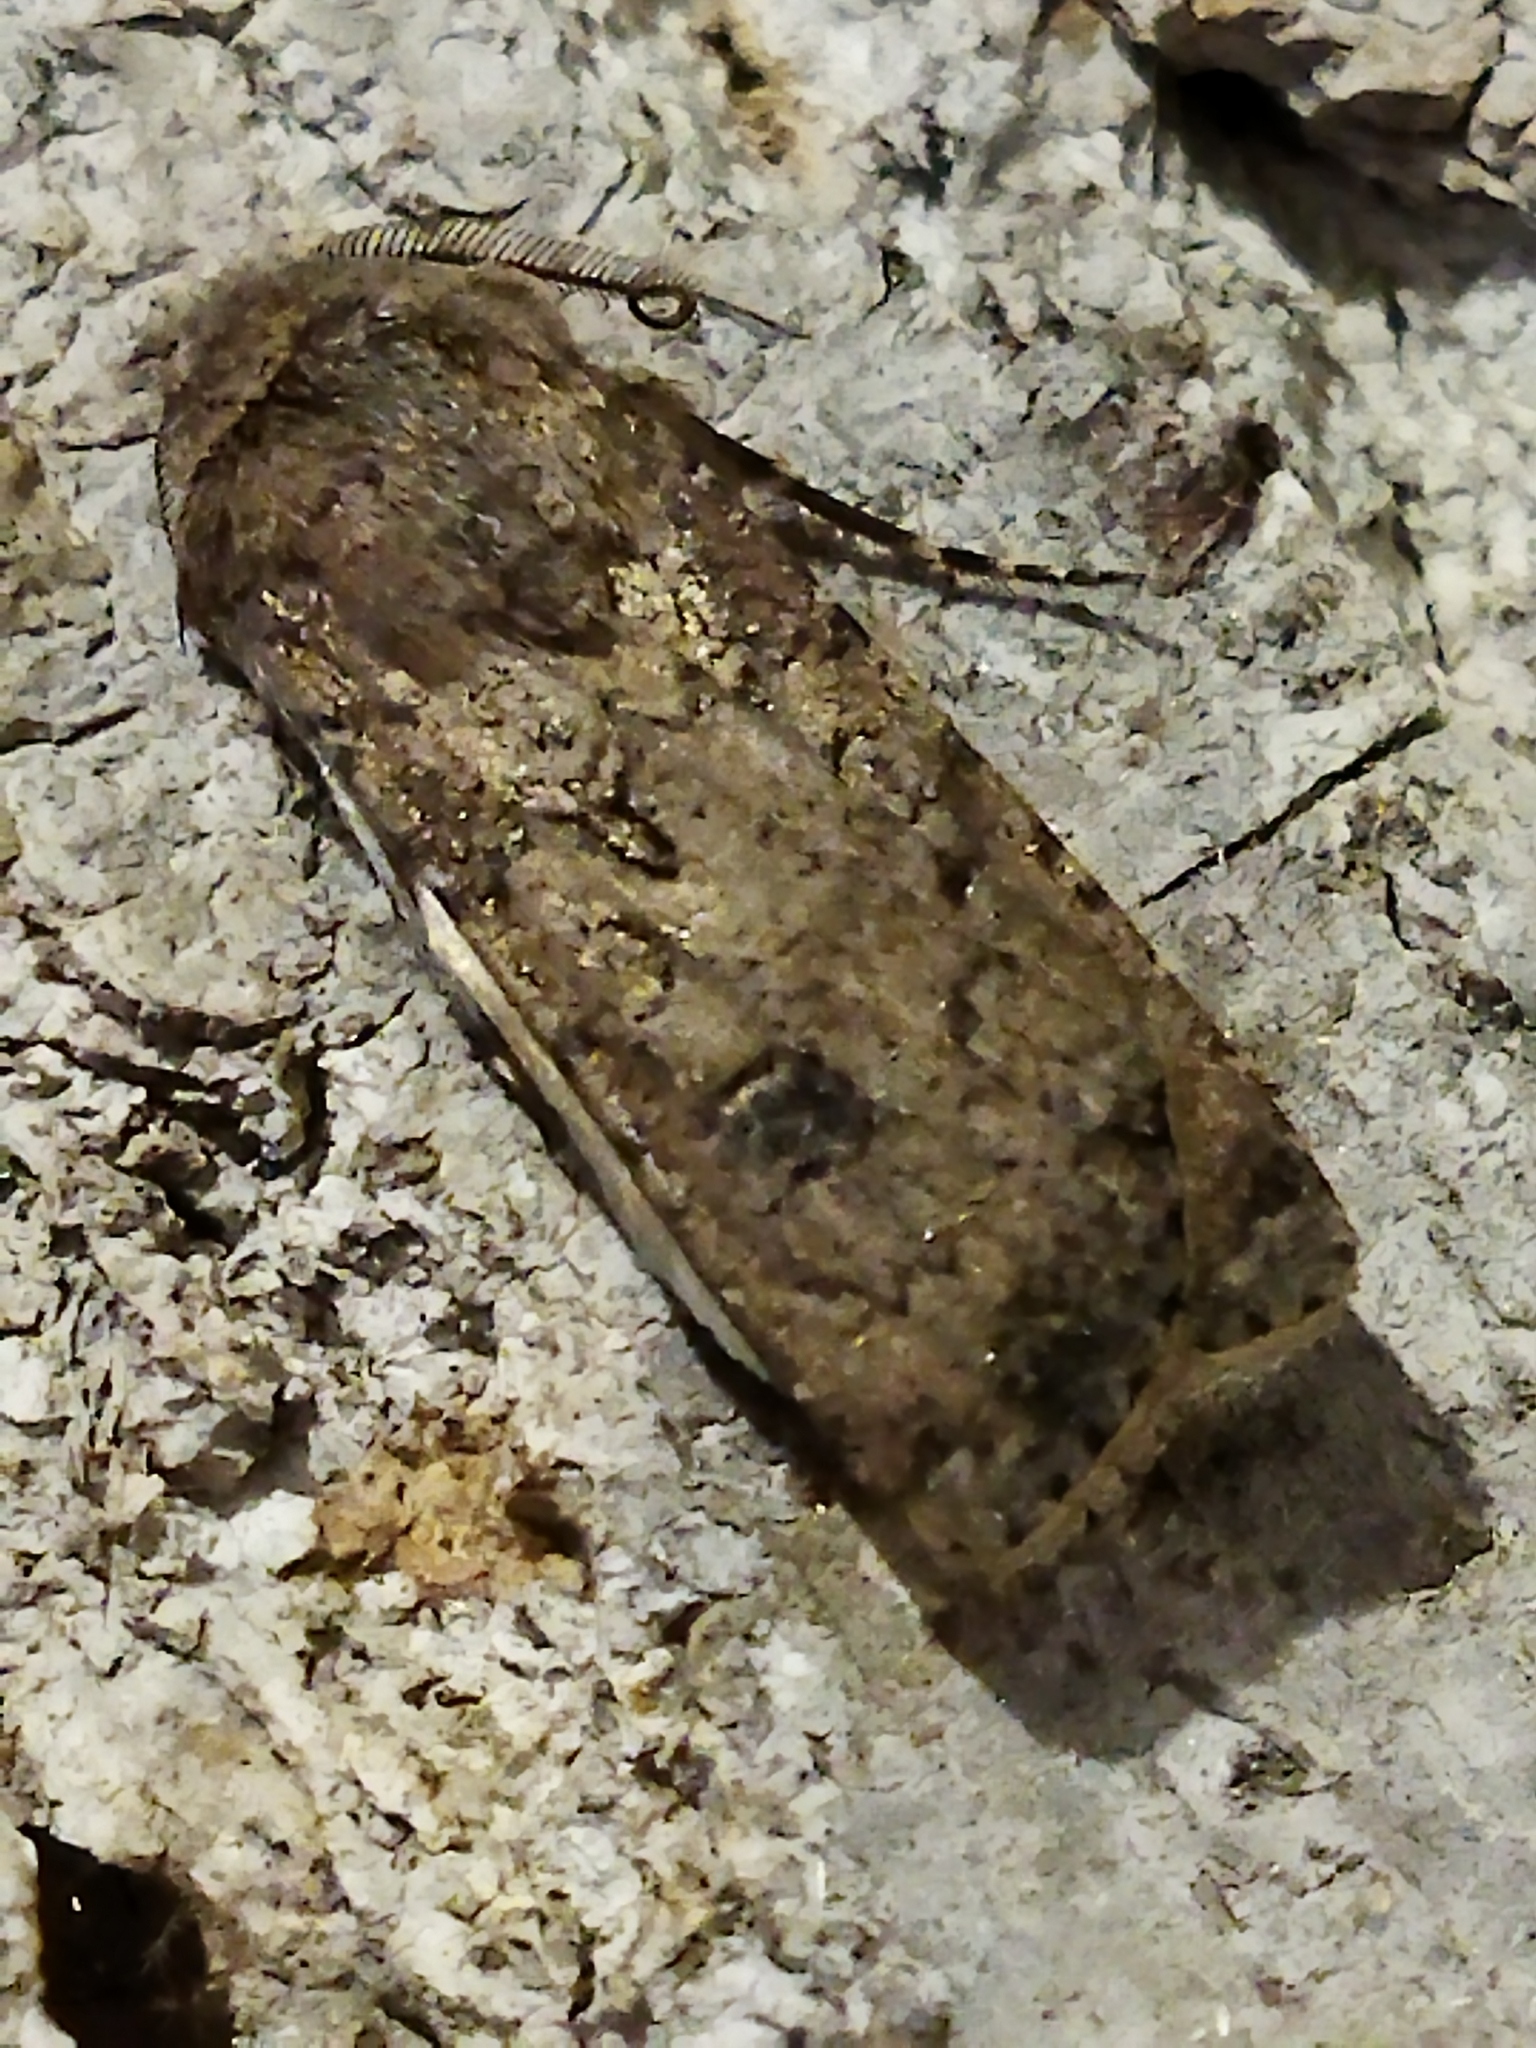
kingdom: Animalia
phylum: Arthropoda
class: Insecta
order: Lepidoptera
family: Noctuidae
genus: Agrotis
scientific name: Agrotis segetum
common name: Turnip moth
